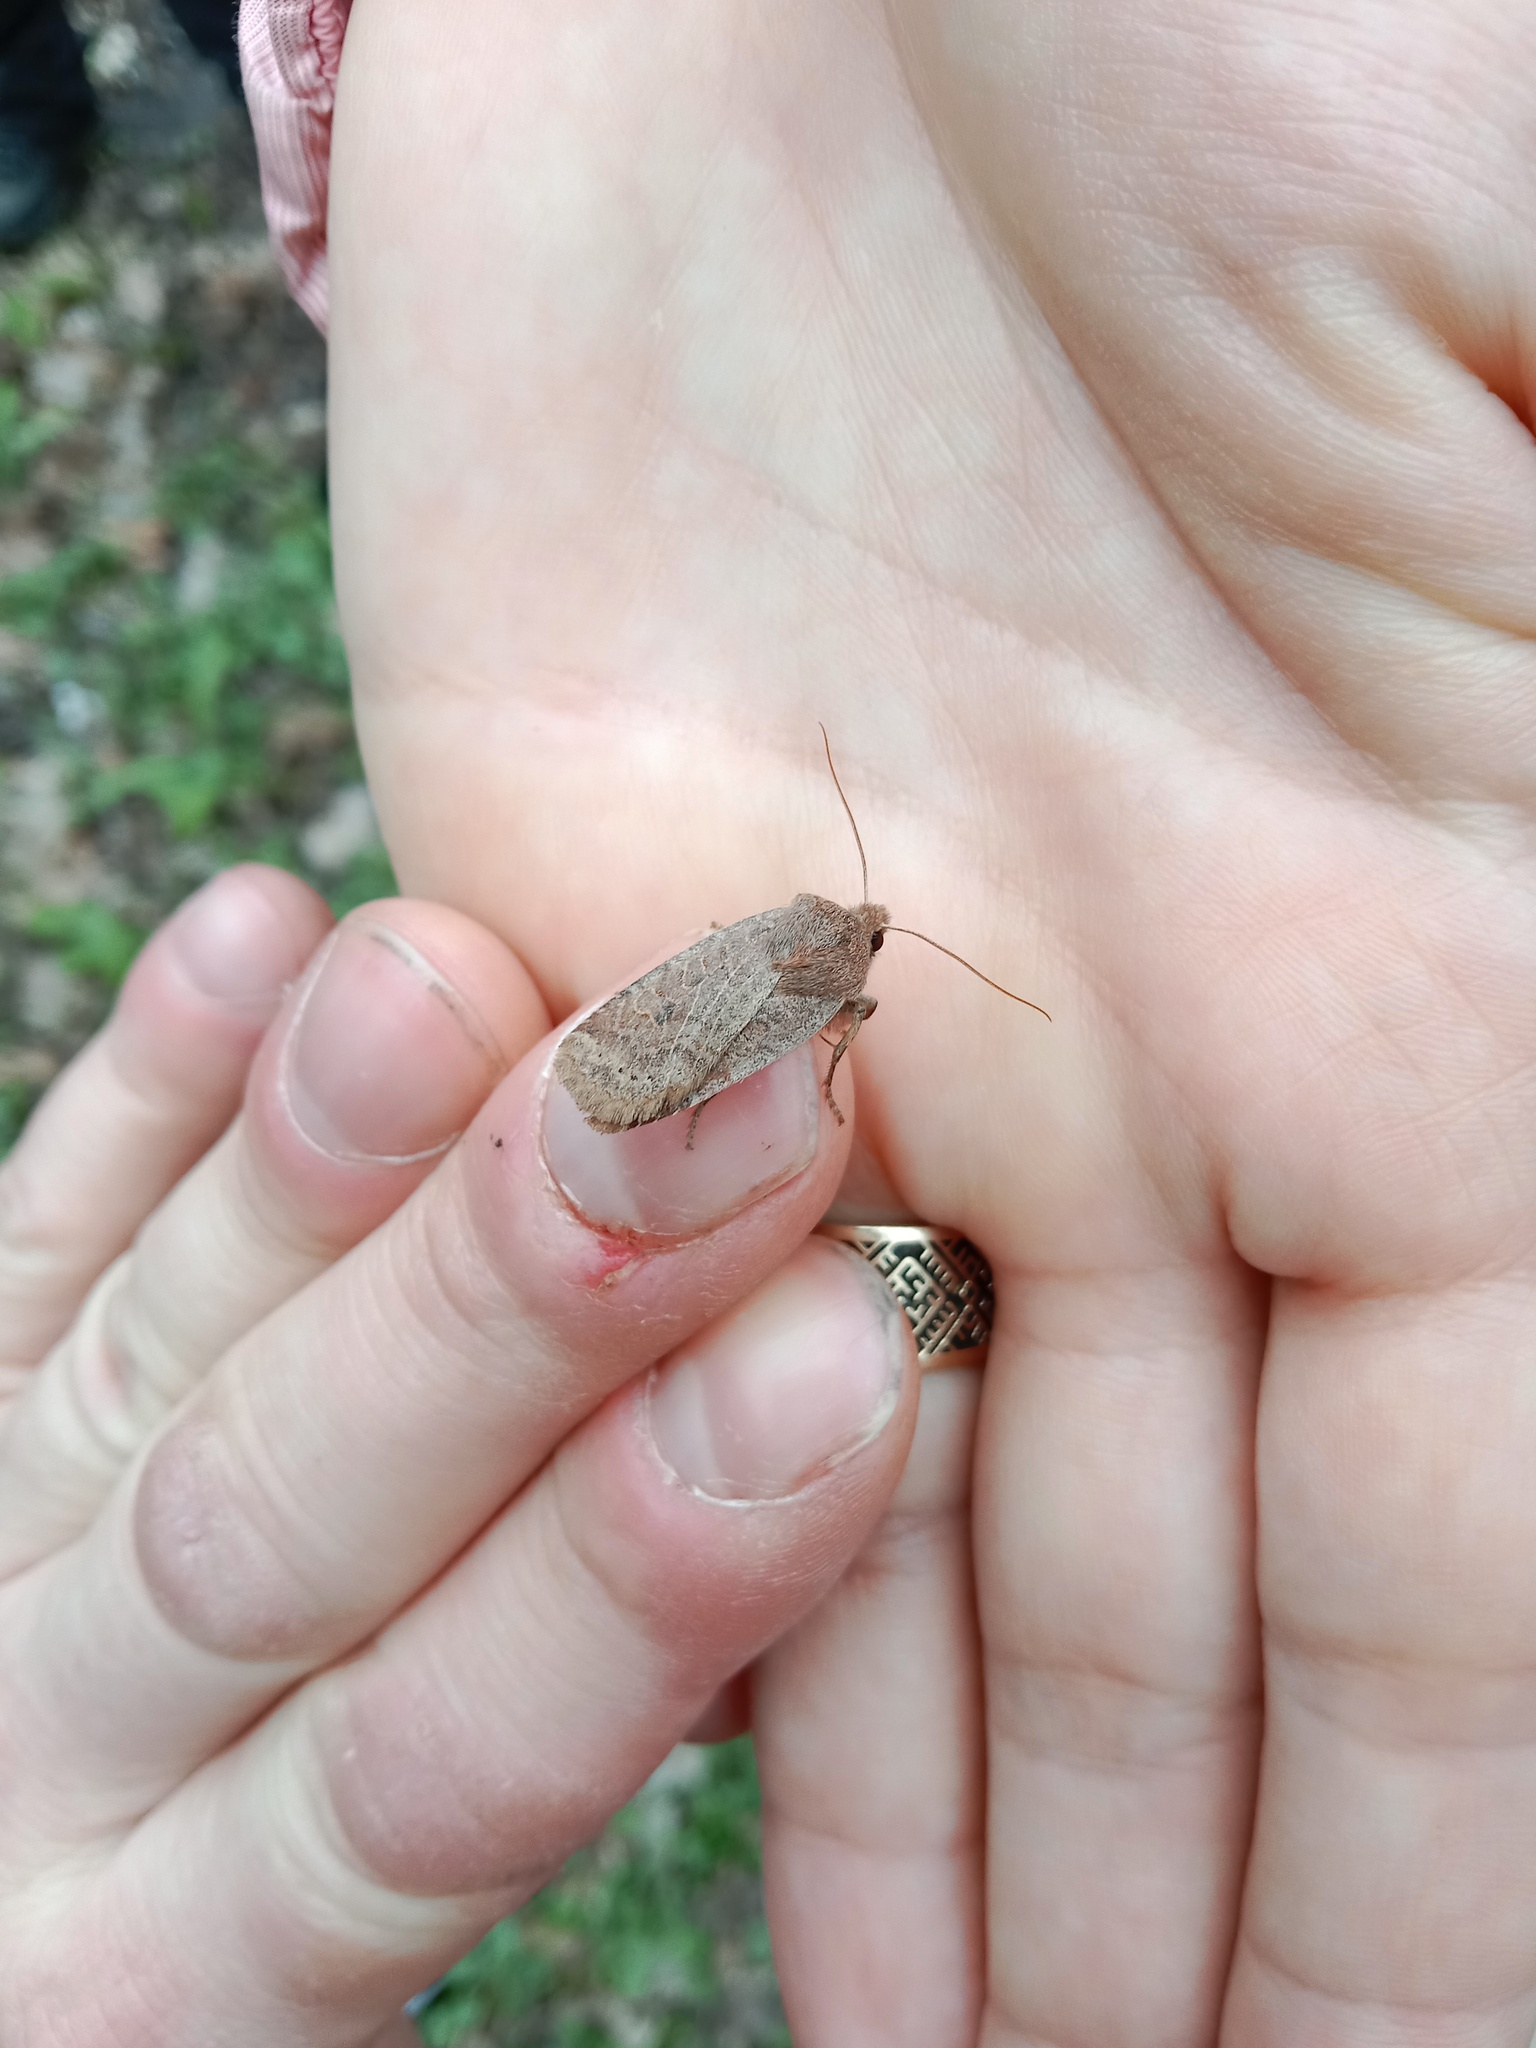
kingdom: Animalia
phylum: Arthropoda
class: Insecta
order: Lepidoptera
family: Noctuidae
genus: Conistra
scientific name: Conistra vaccinii
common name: Chestnut
